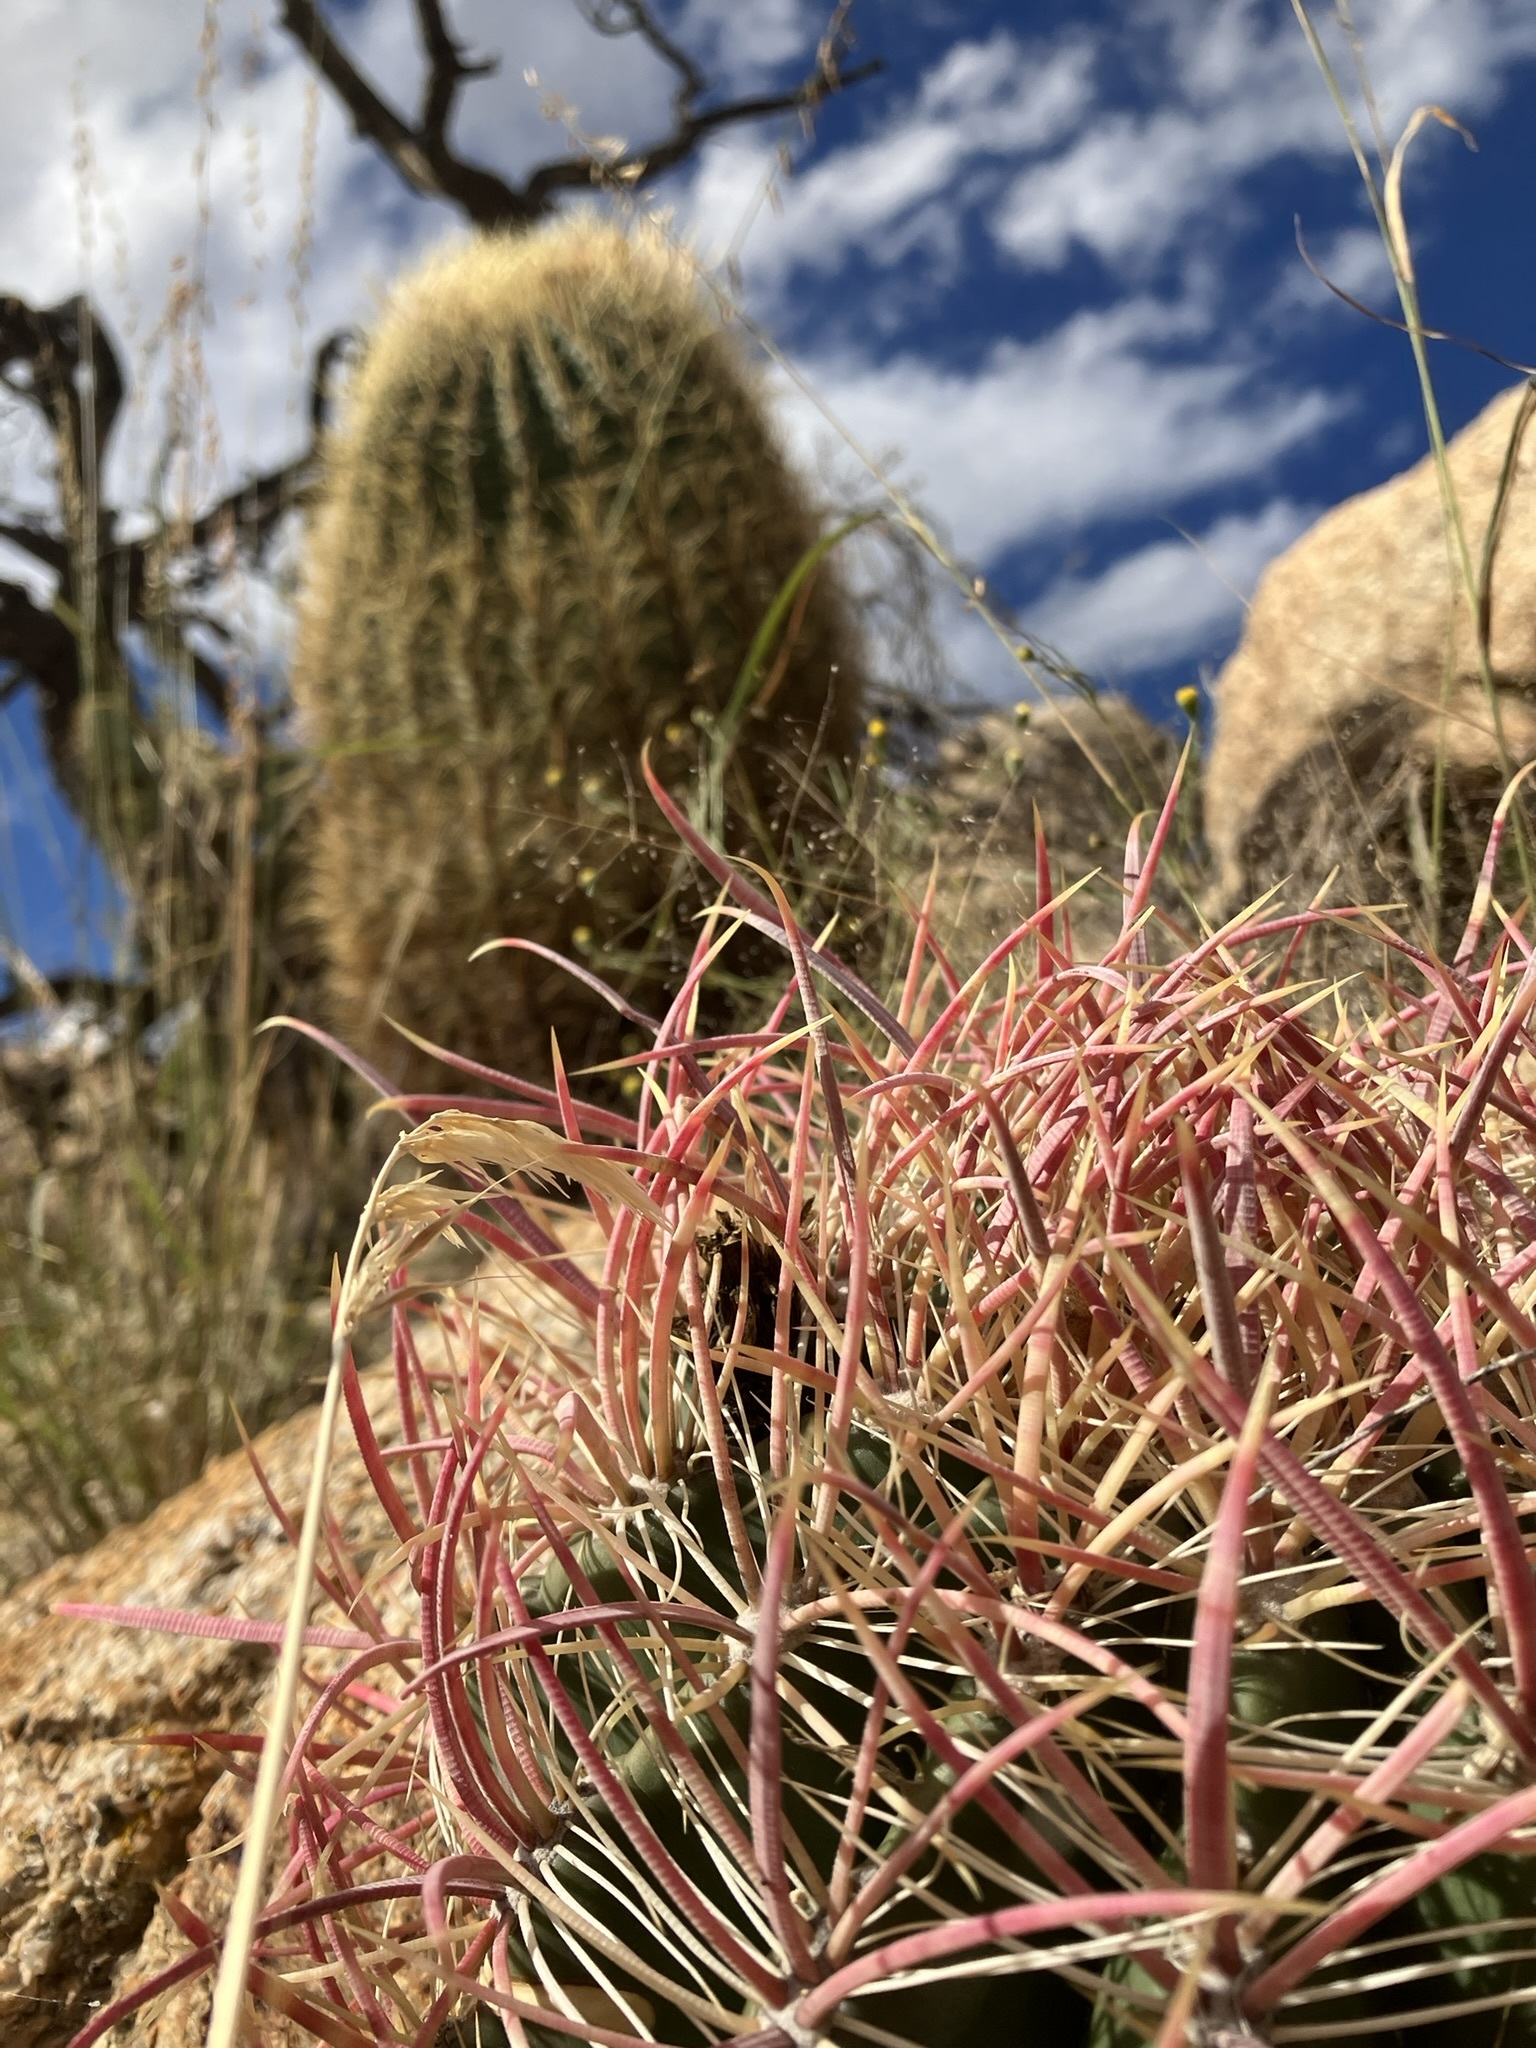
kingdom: Plantae
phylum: Tracheophyta
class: Magnoliopsida
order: Caryophyllales
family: Cactaceae
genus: Ferocactus
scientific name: Ferocactus cylindraceus
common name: California barrel cactus
